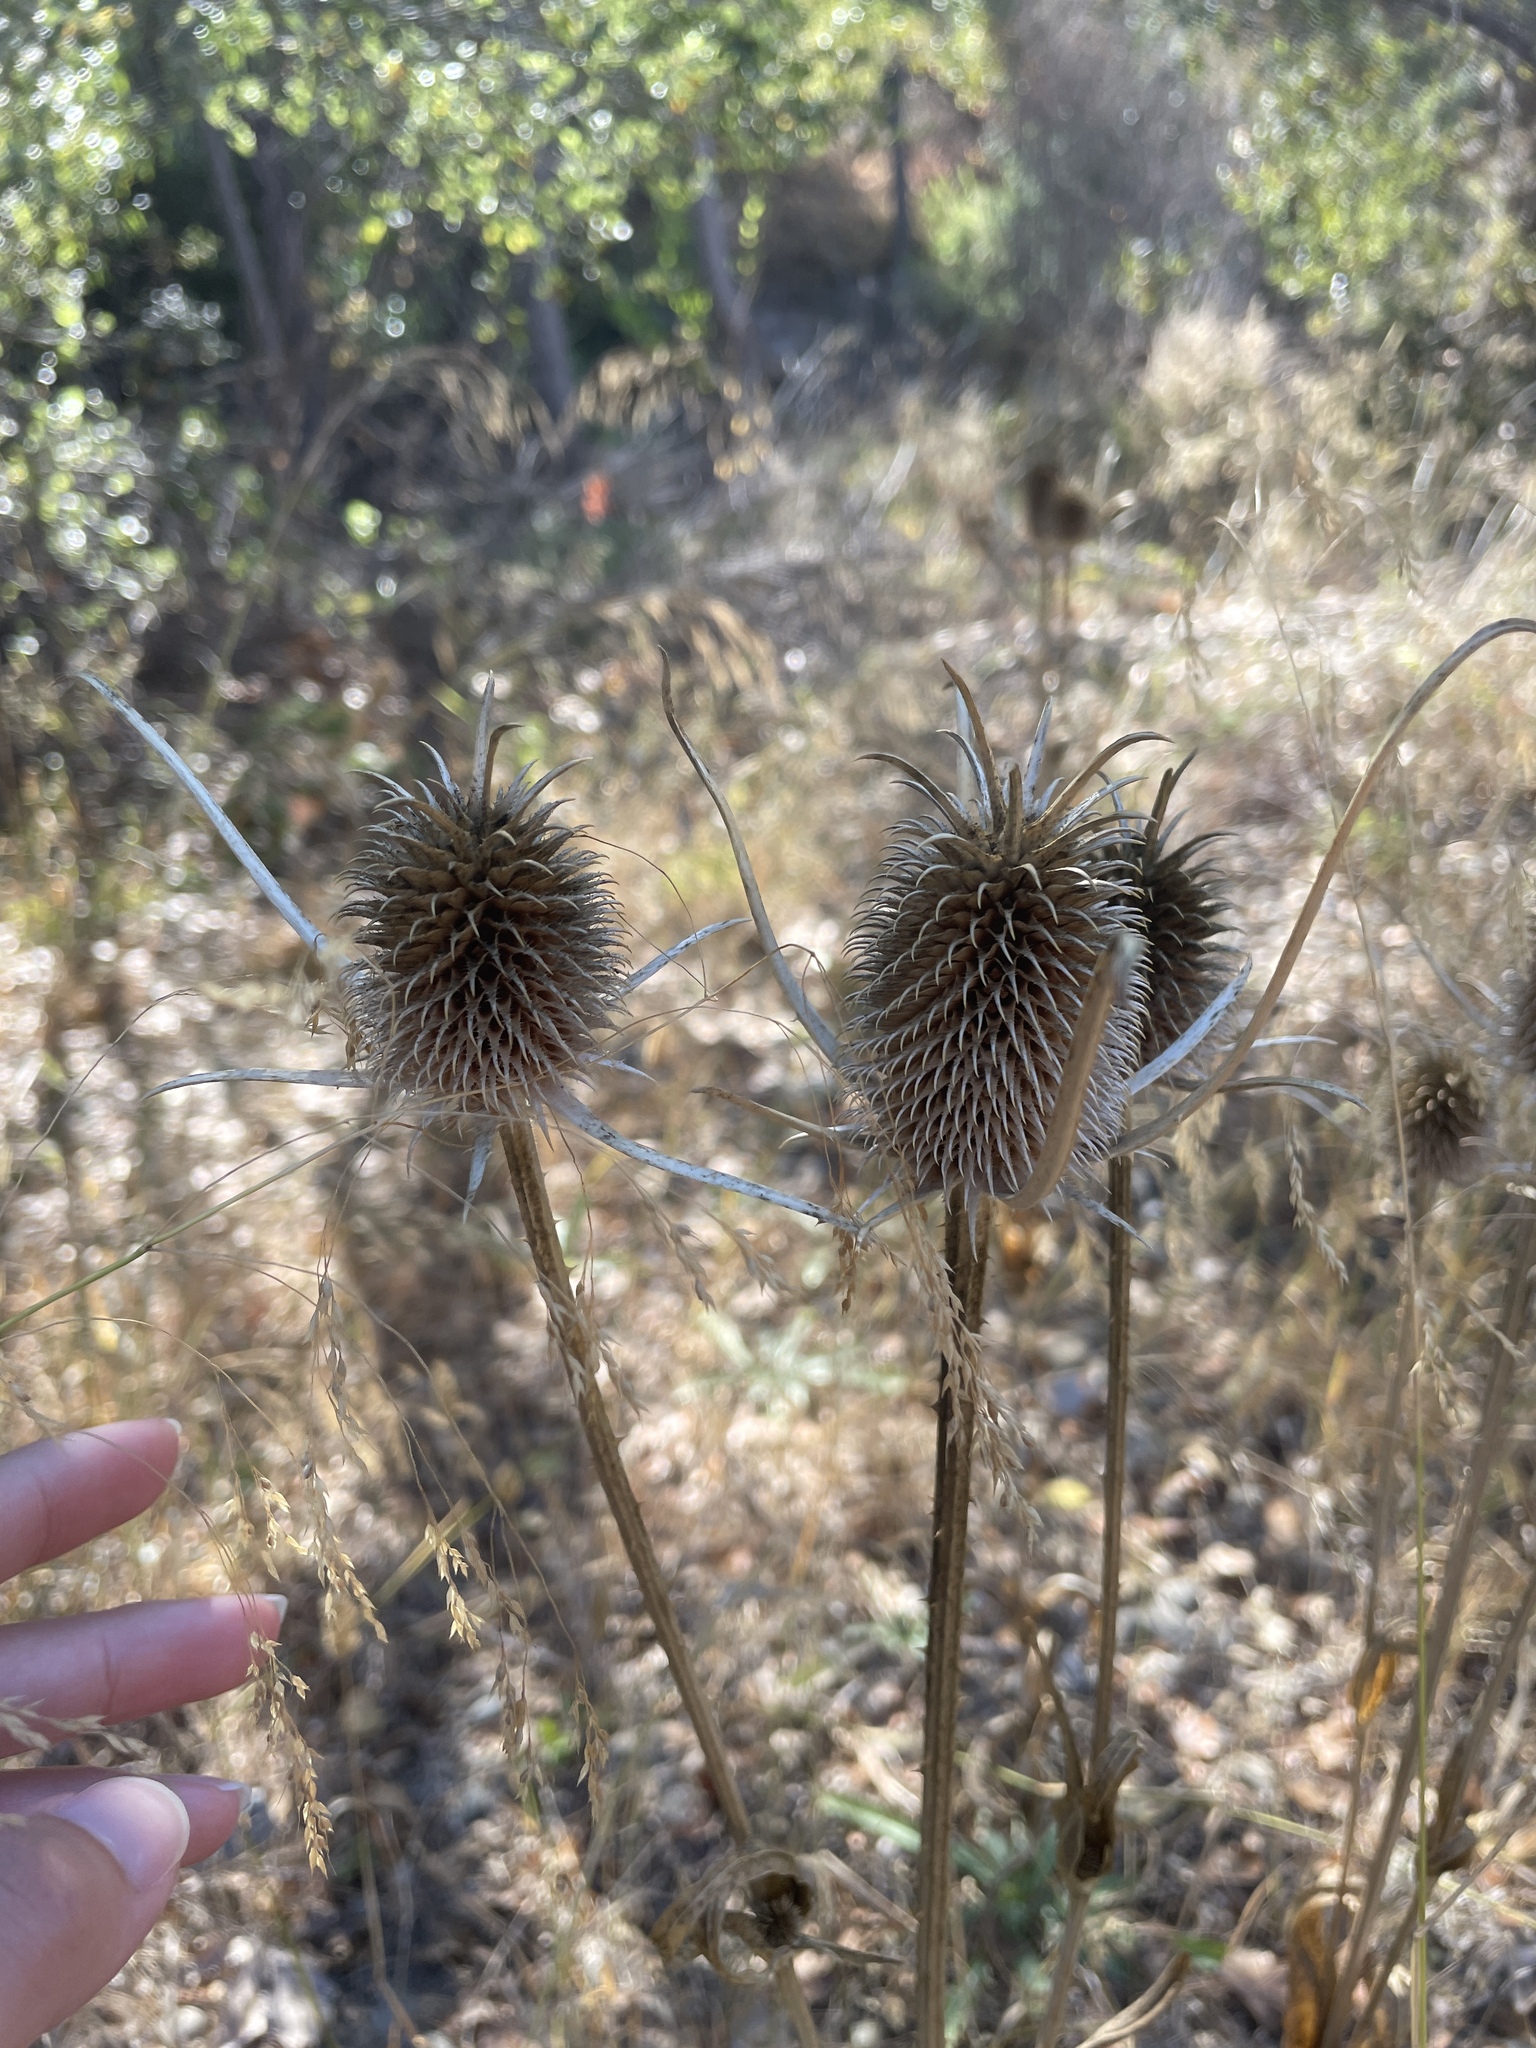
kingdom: Plantae
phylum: Tracheophyta
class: Magnoliopsida
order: Dipsacales
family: Caprifoliaceae
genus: Dipsacus
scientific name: Dipsacus sativus
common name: Fuller's teasel
